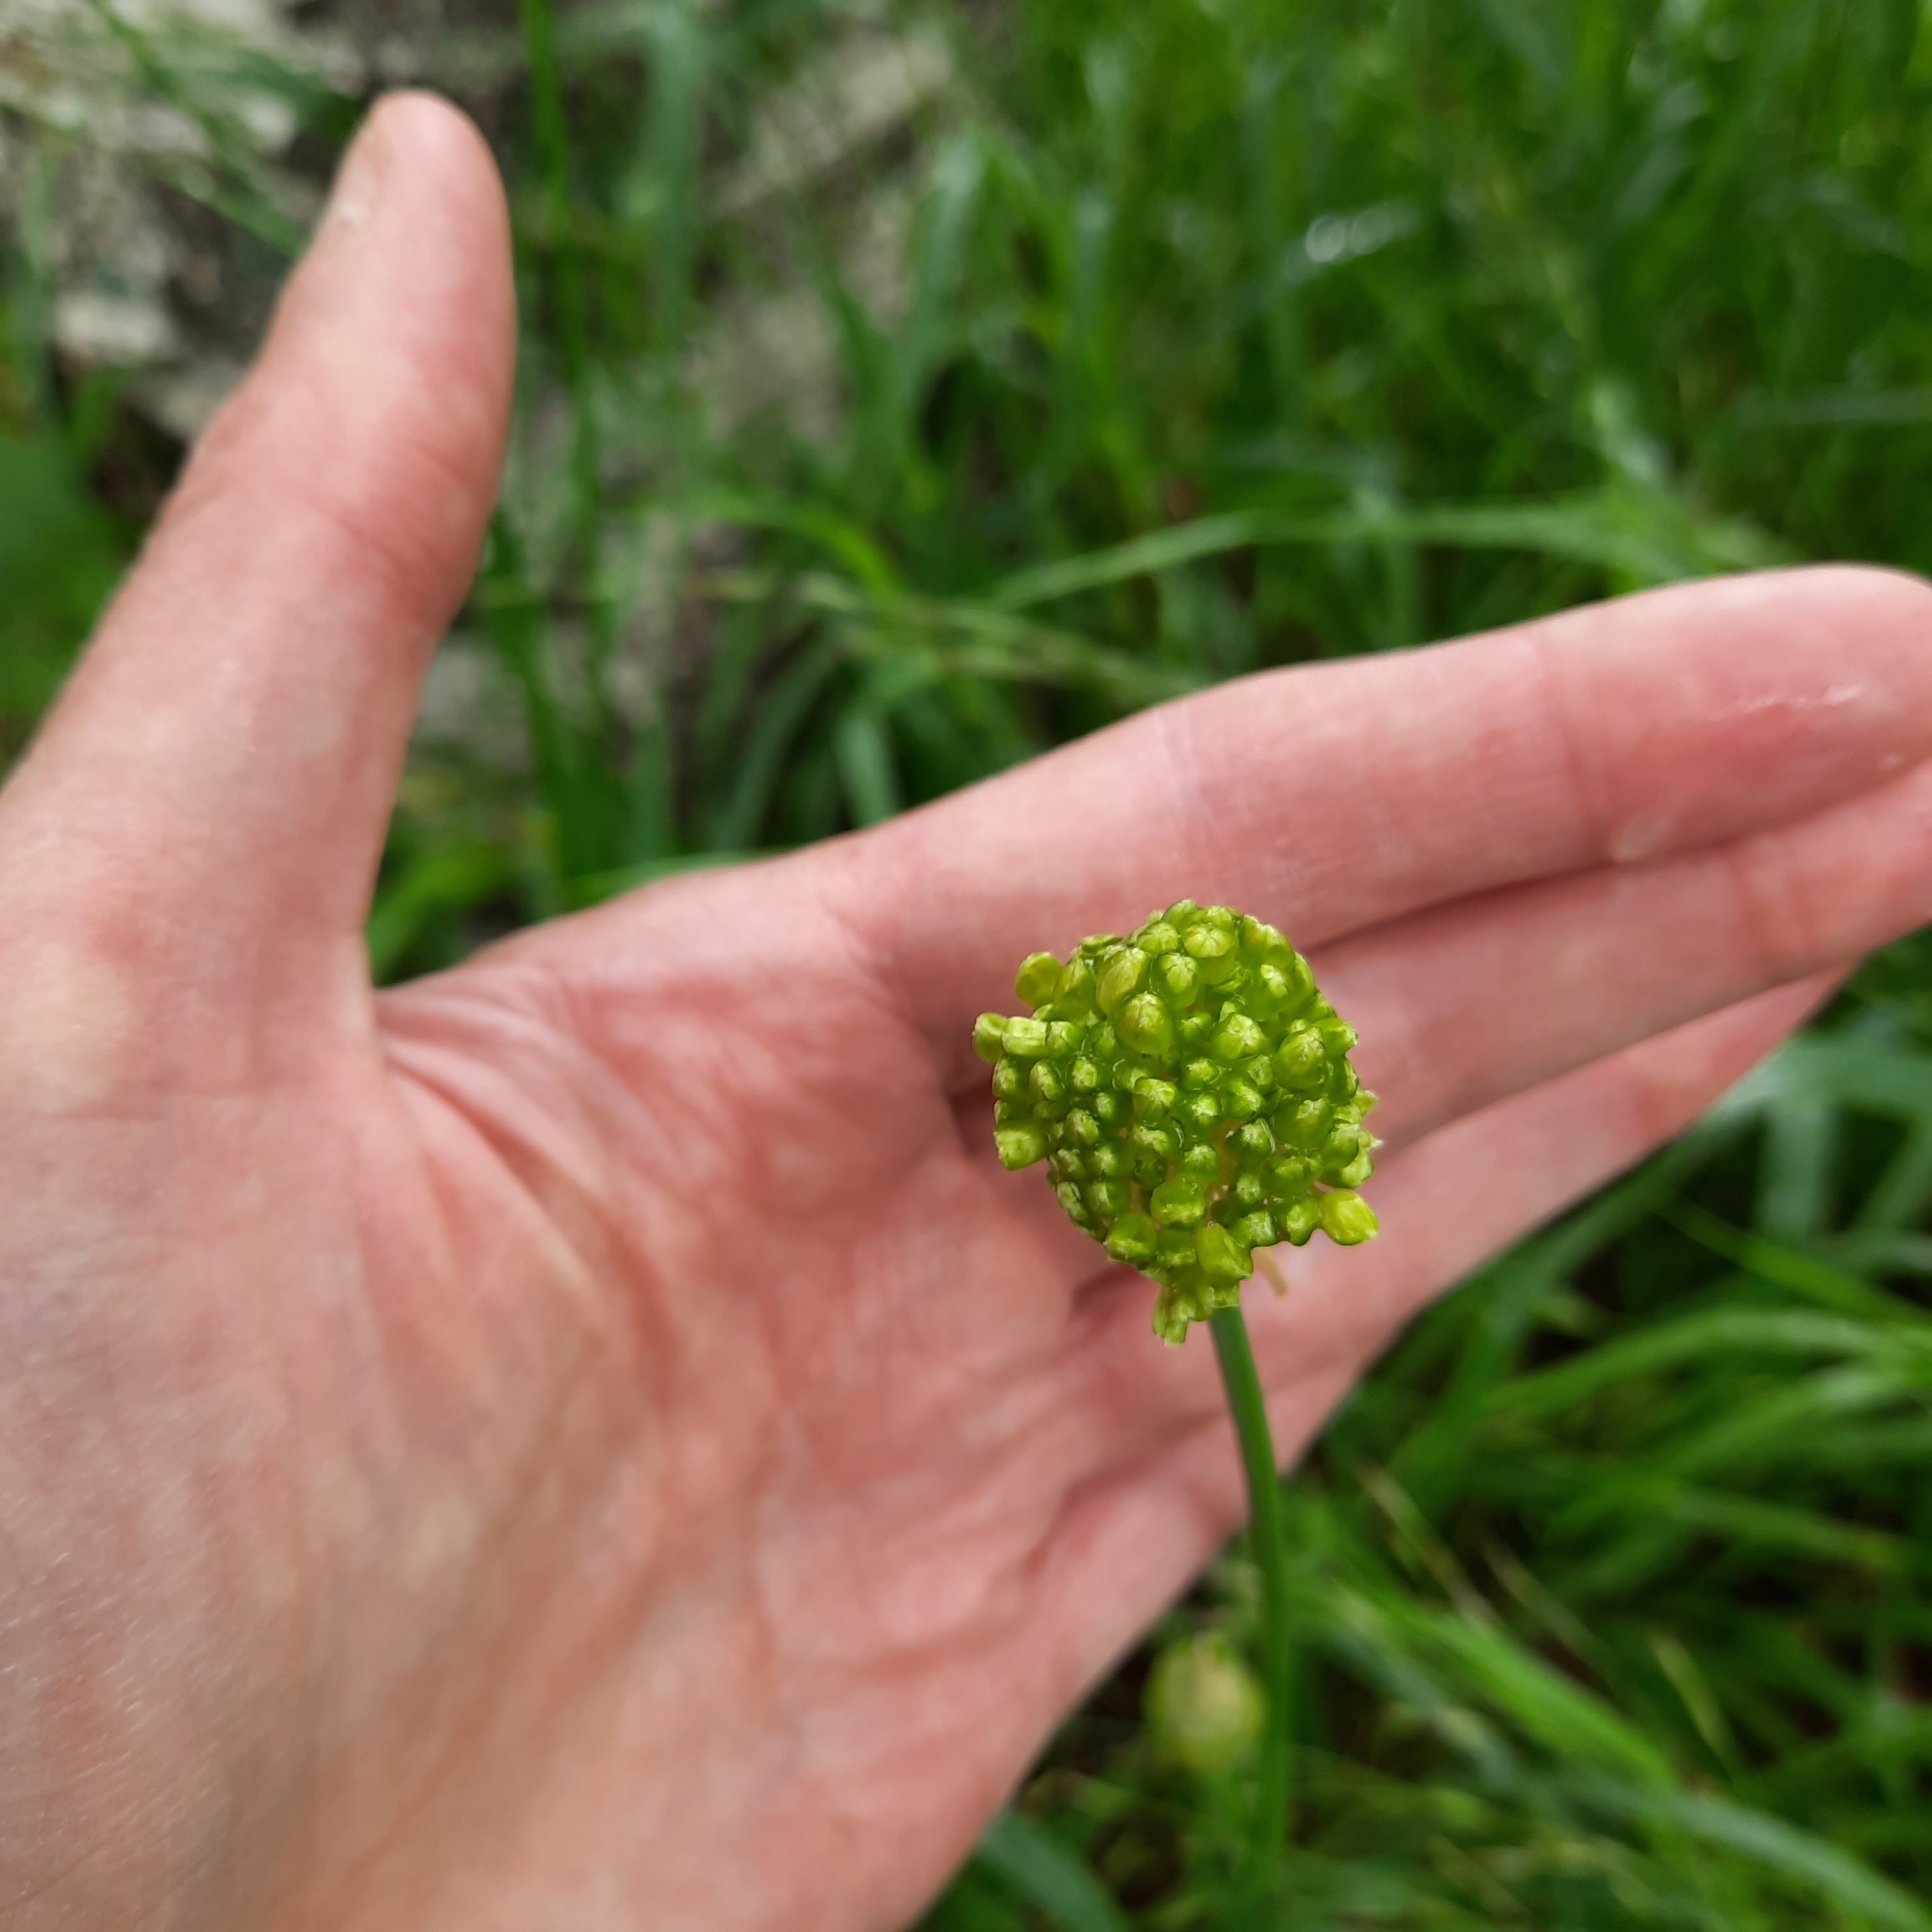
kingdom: Plantae
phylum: Tracheophyta
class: Liliopsida
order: Asparagales
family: Amaryllidaceae
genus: Allium
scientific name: Allium obliquum
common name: Oblique onion
